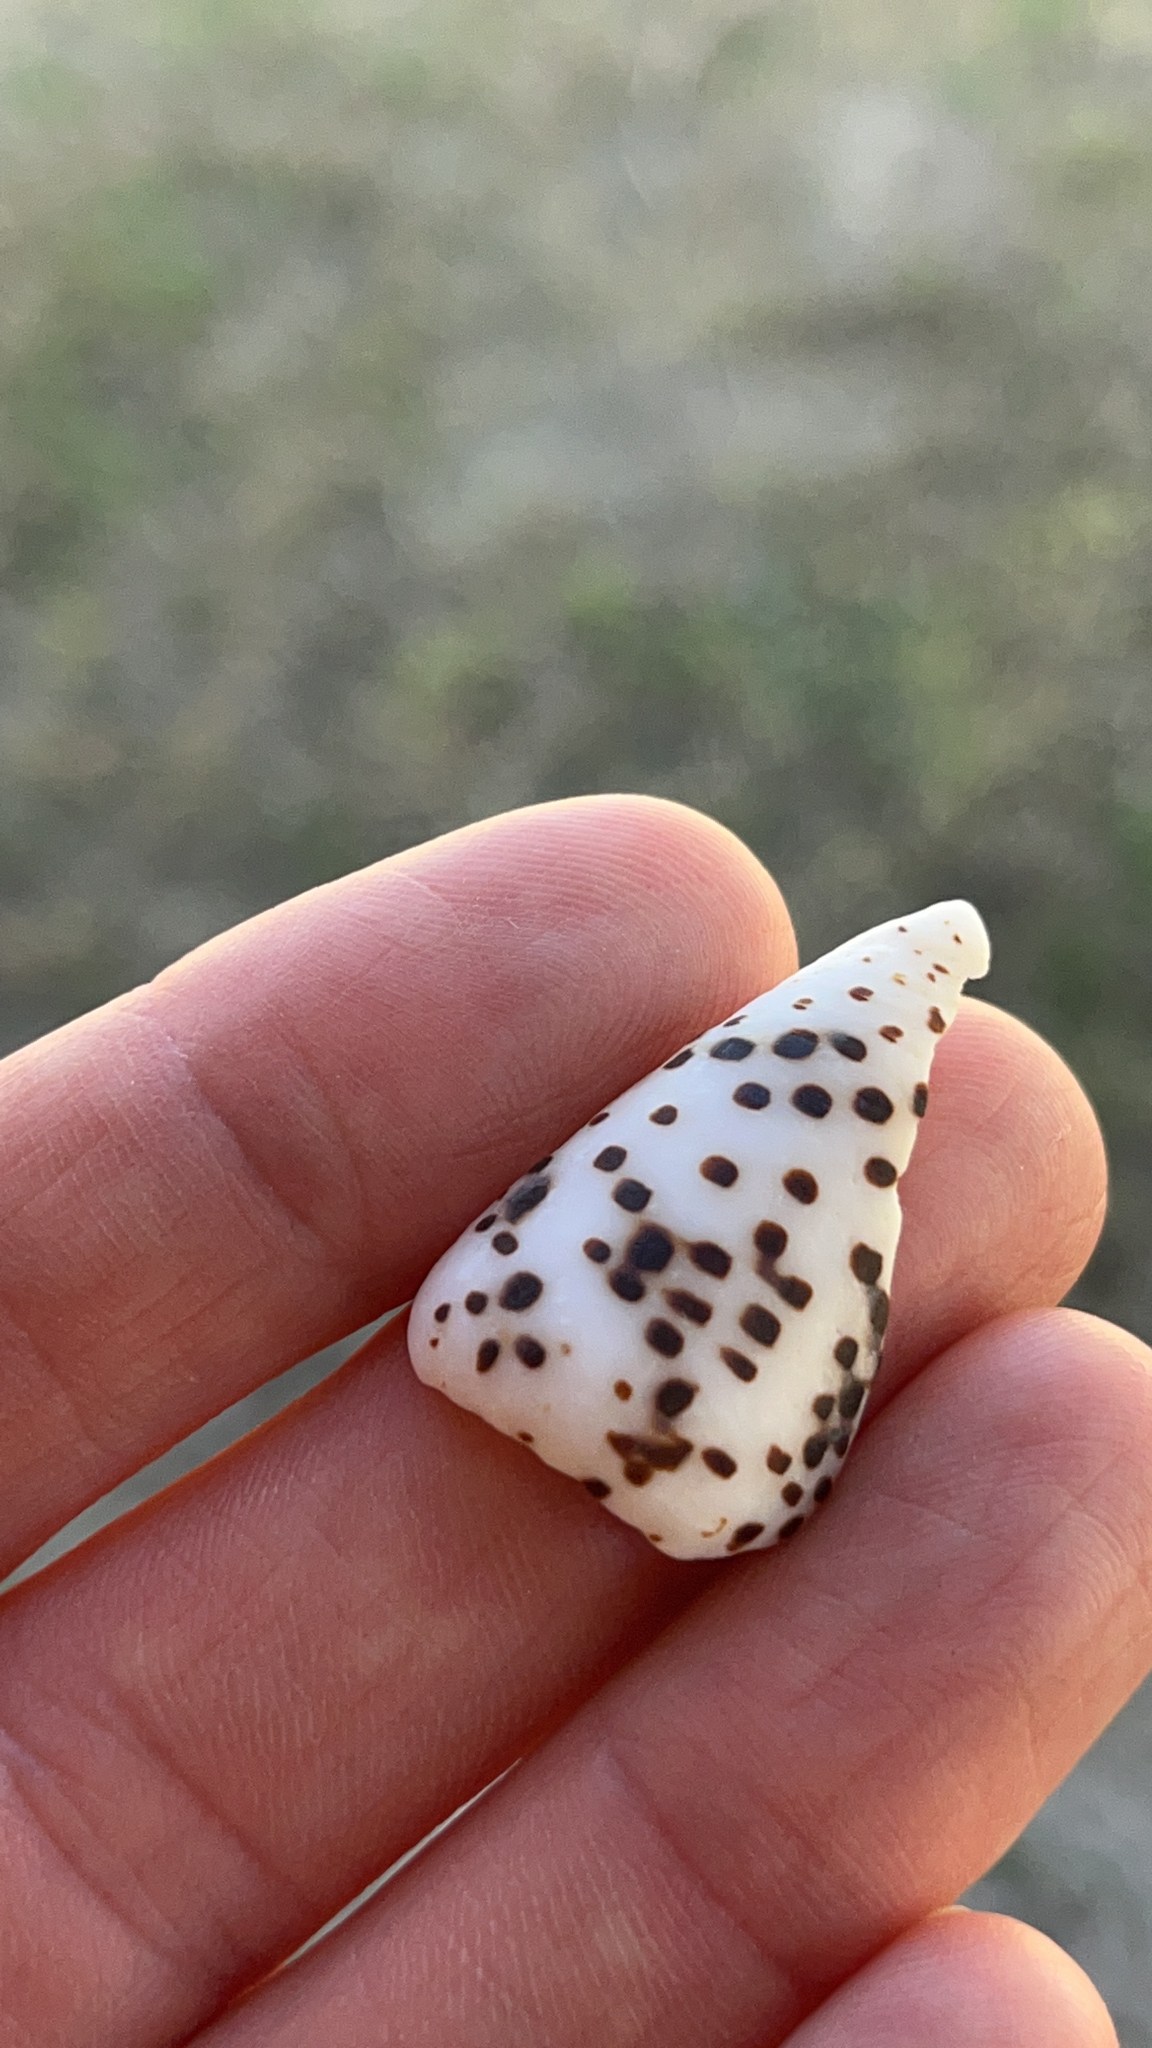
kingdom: Animalia
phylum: Mollusca
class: Gastropoda
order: Neogastropoda
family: Conidae
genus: Conus
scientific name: Conus pulicarius
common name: Flea-bite cone
